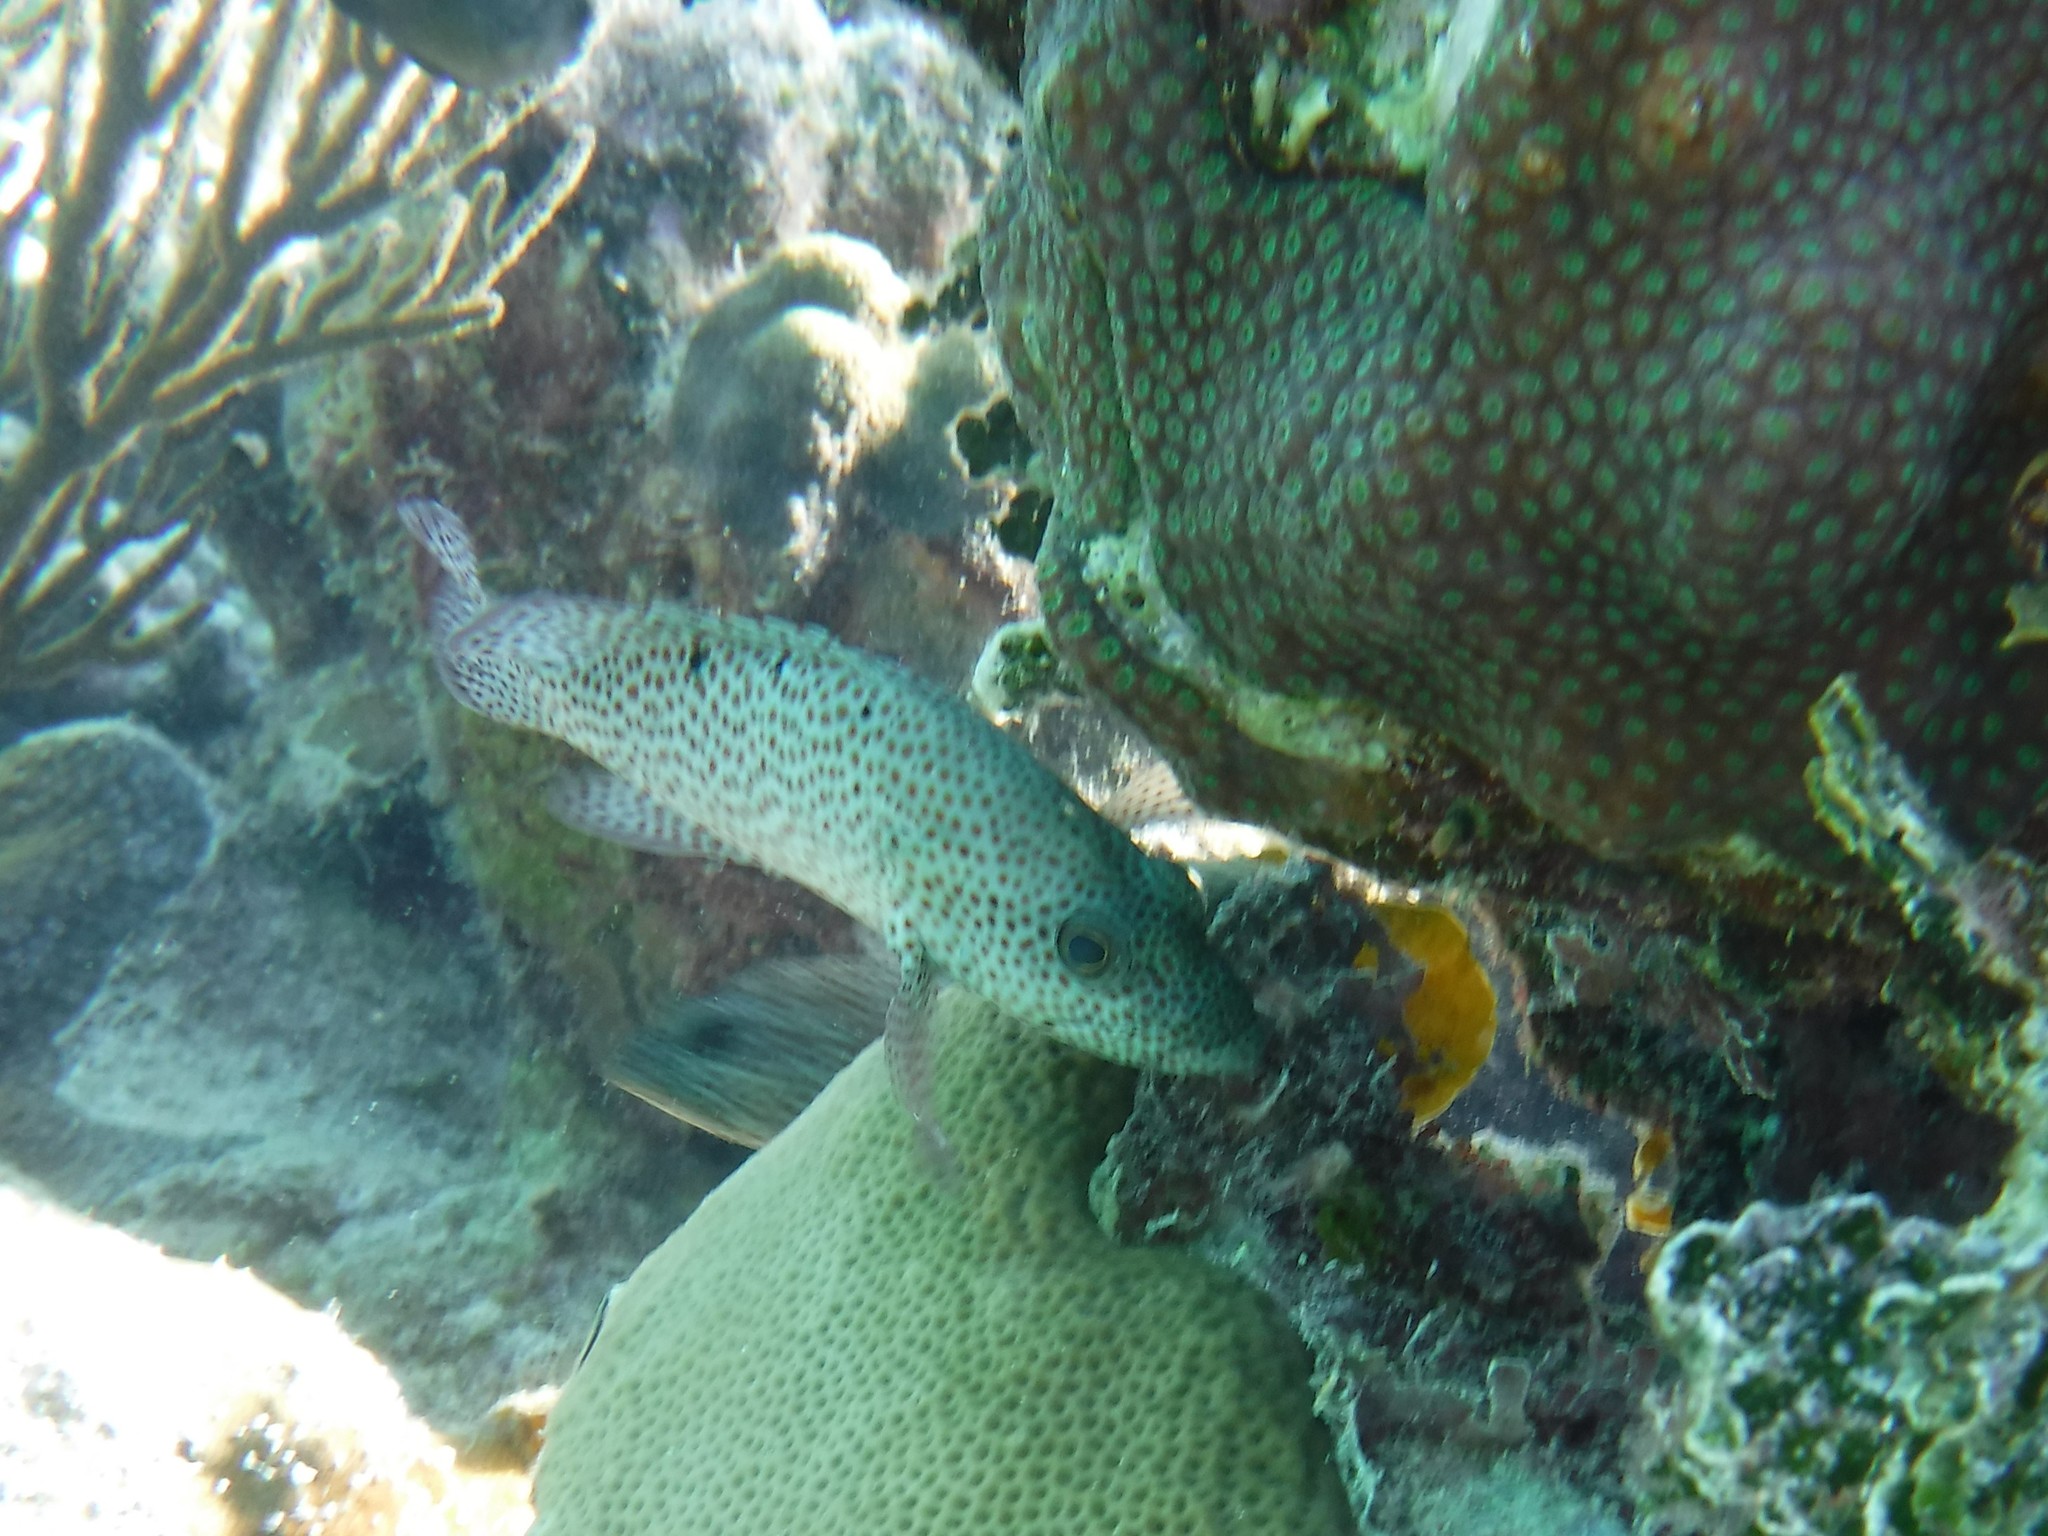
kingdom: Animalia
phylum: Chordata
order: Perciformes
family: Serranidae
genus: Cephalopholis
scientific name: Cephalopholis cruentata
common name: Graysby
